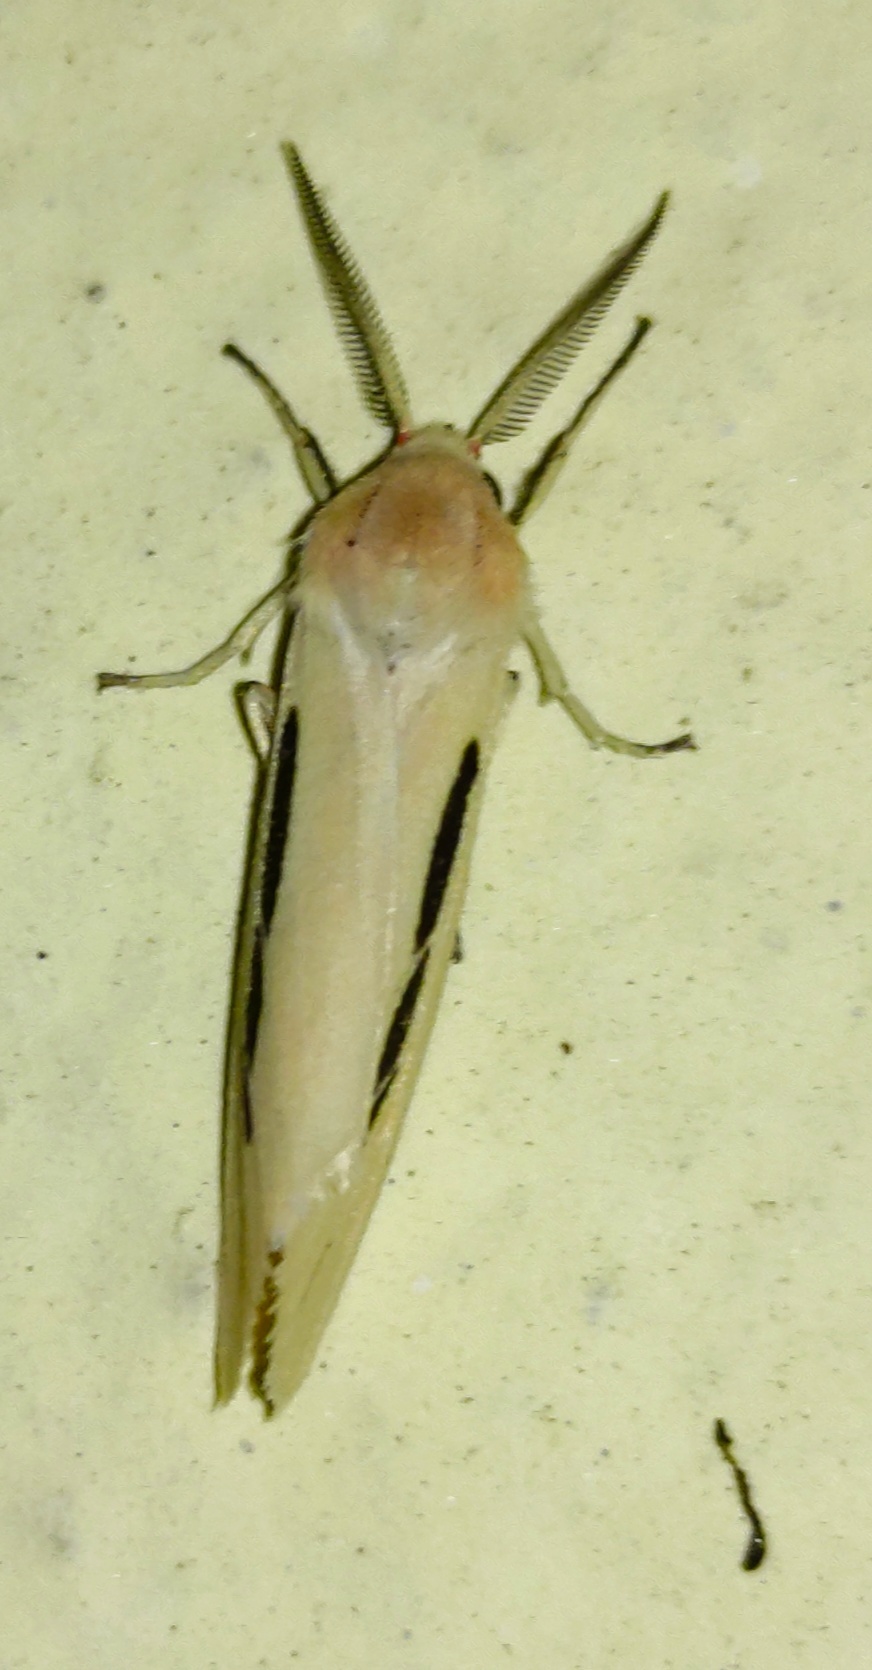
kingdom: Animalia
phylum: Arthropoda
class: Insecta
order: Lepidoptera
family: Erebidae
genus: Micraloa
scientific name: Micraloa
